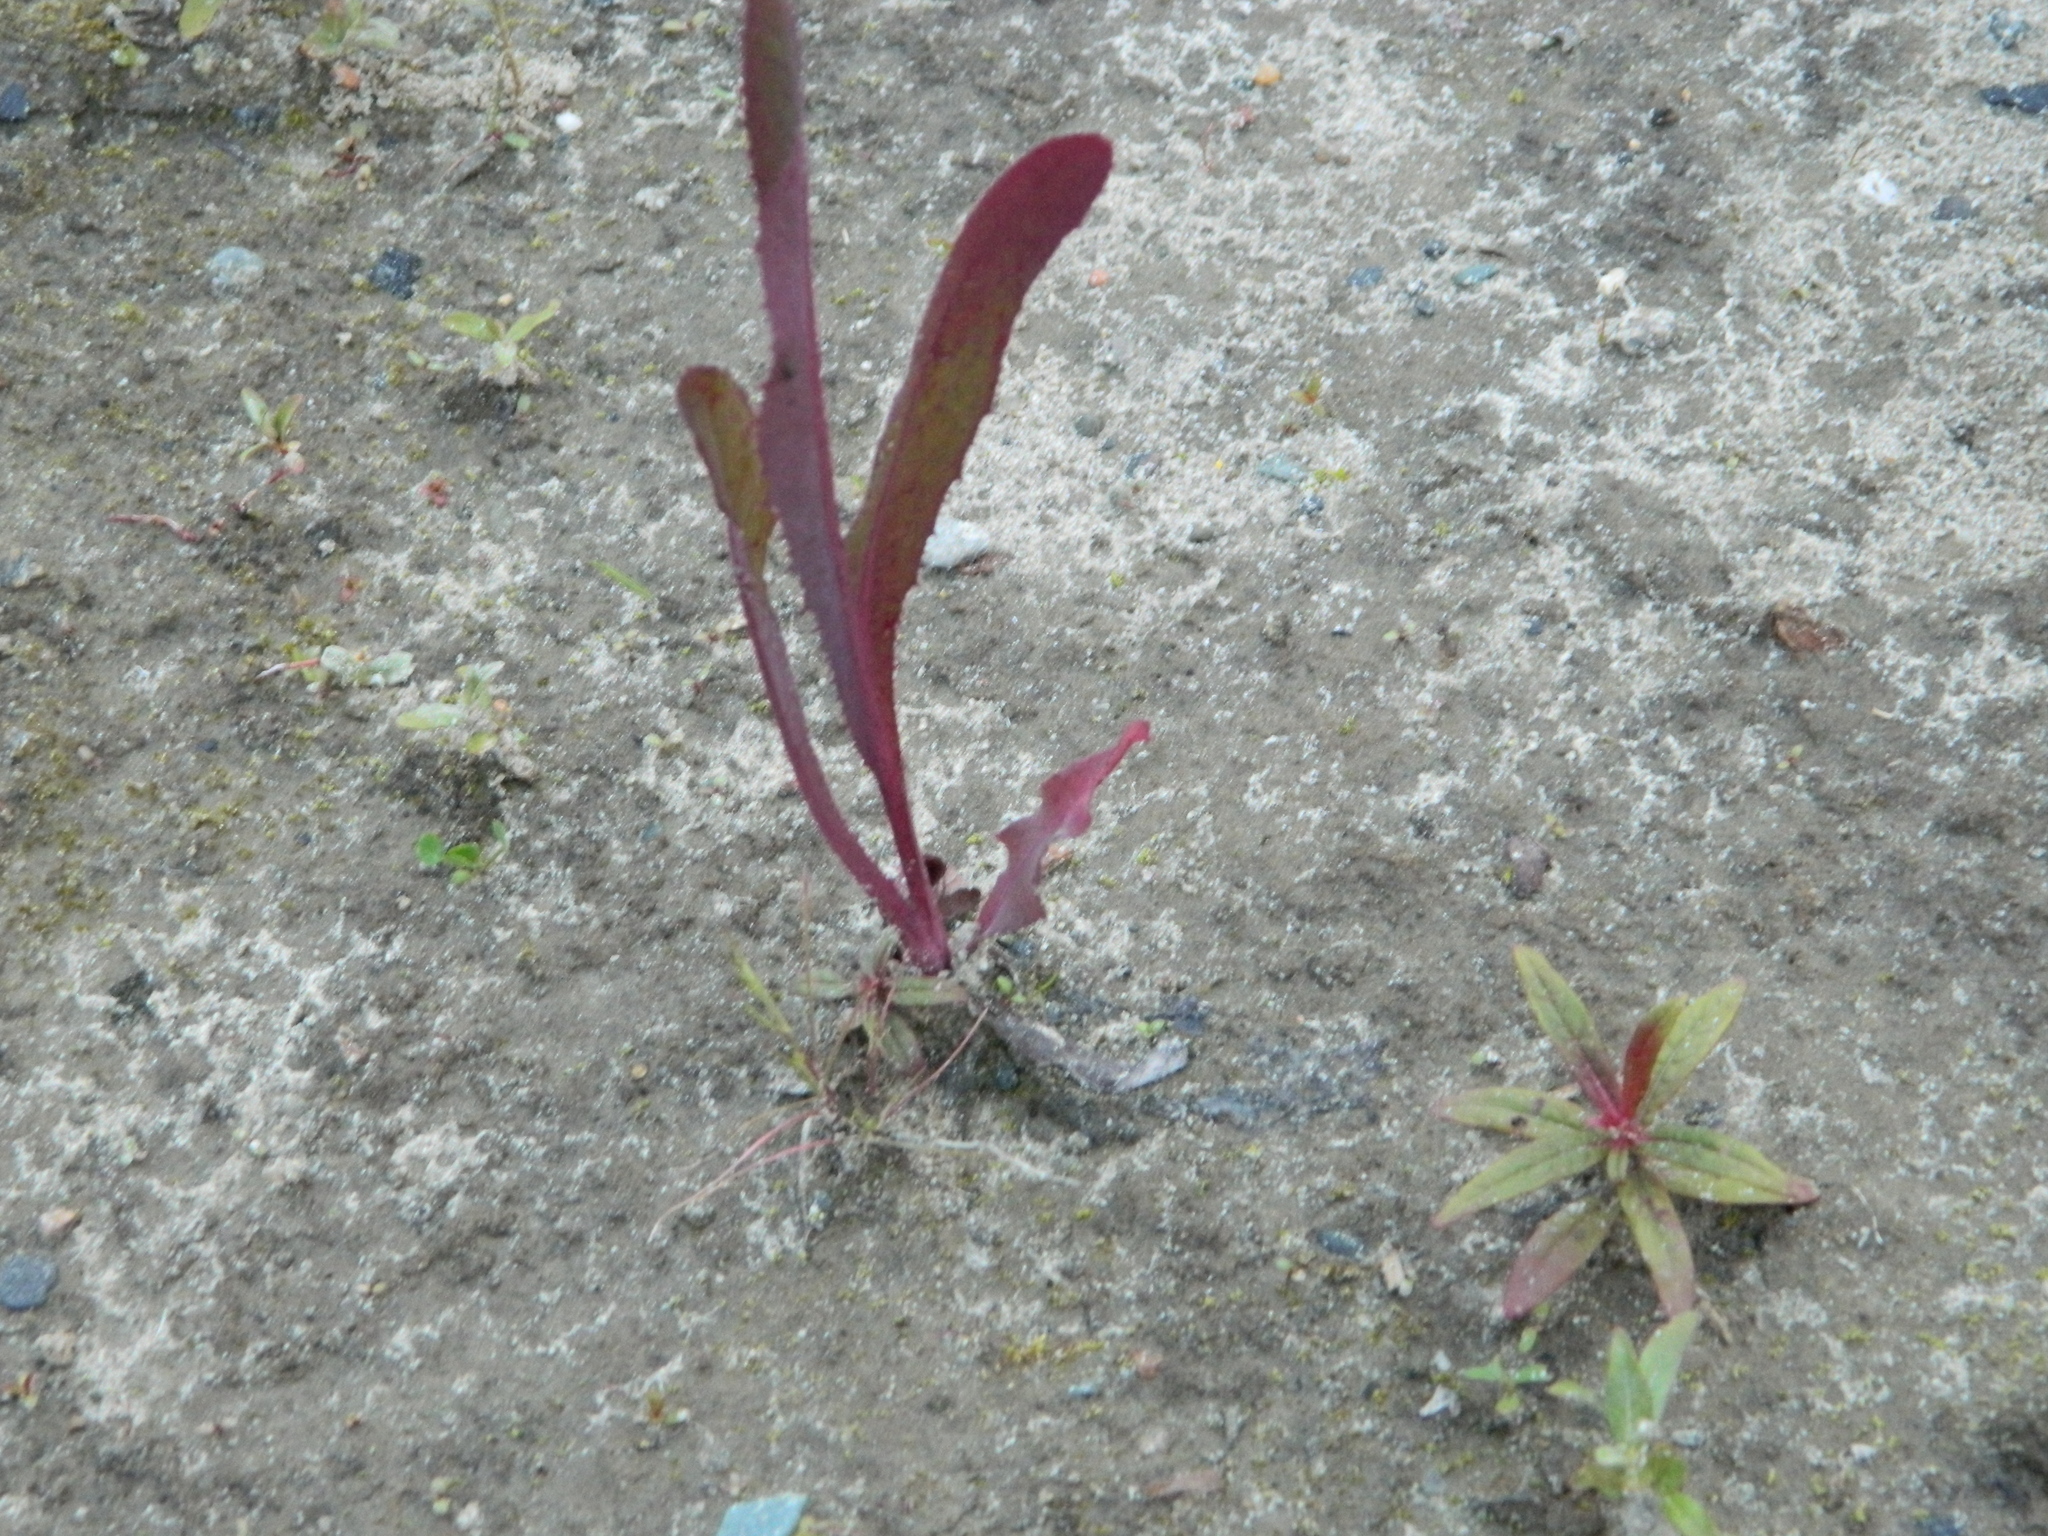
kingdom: Plantae
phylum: Tracheophyta
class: Magnoliopsida
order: Asterales
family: Asteraceae
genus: Sonchus
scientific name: Sonchus arvensis
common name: Perennial sow-thistle
